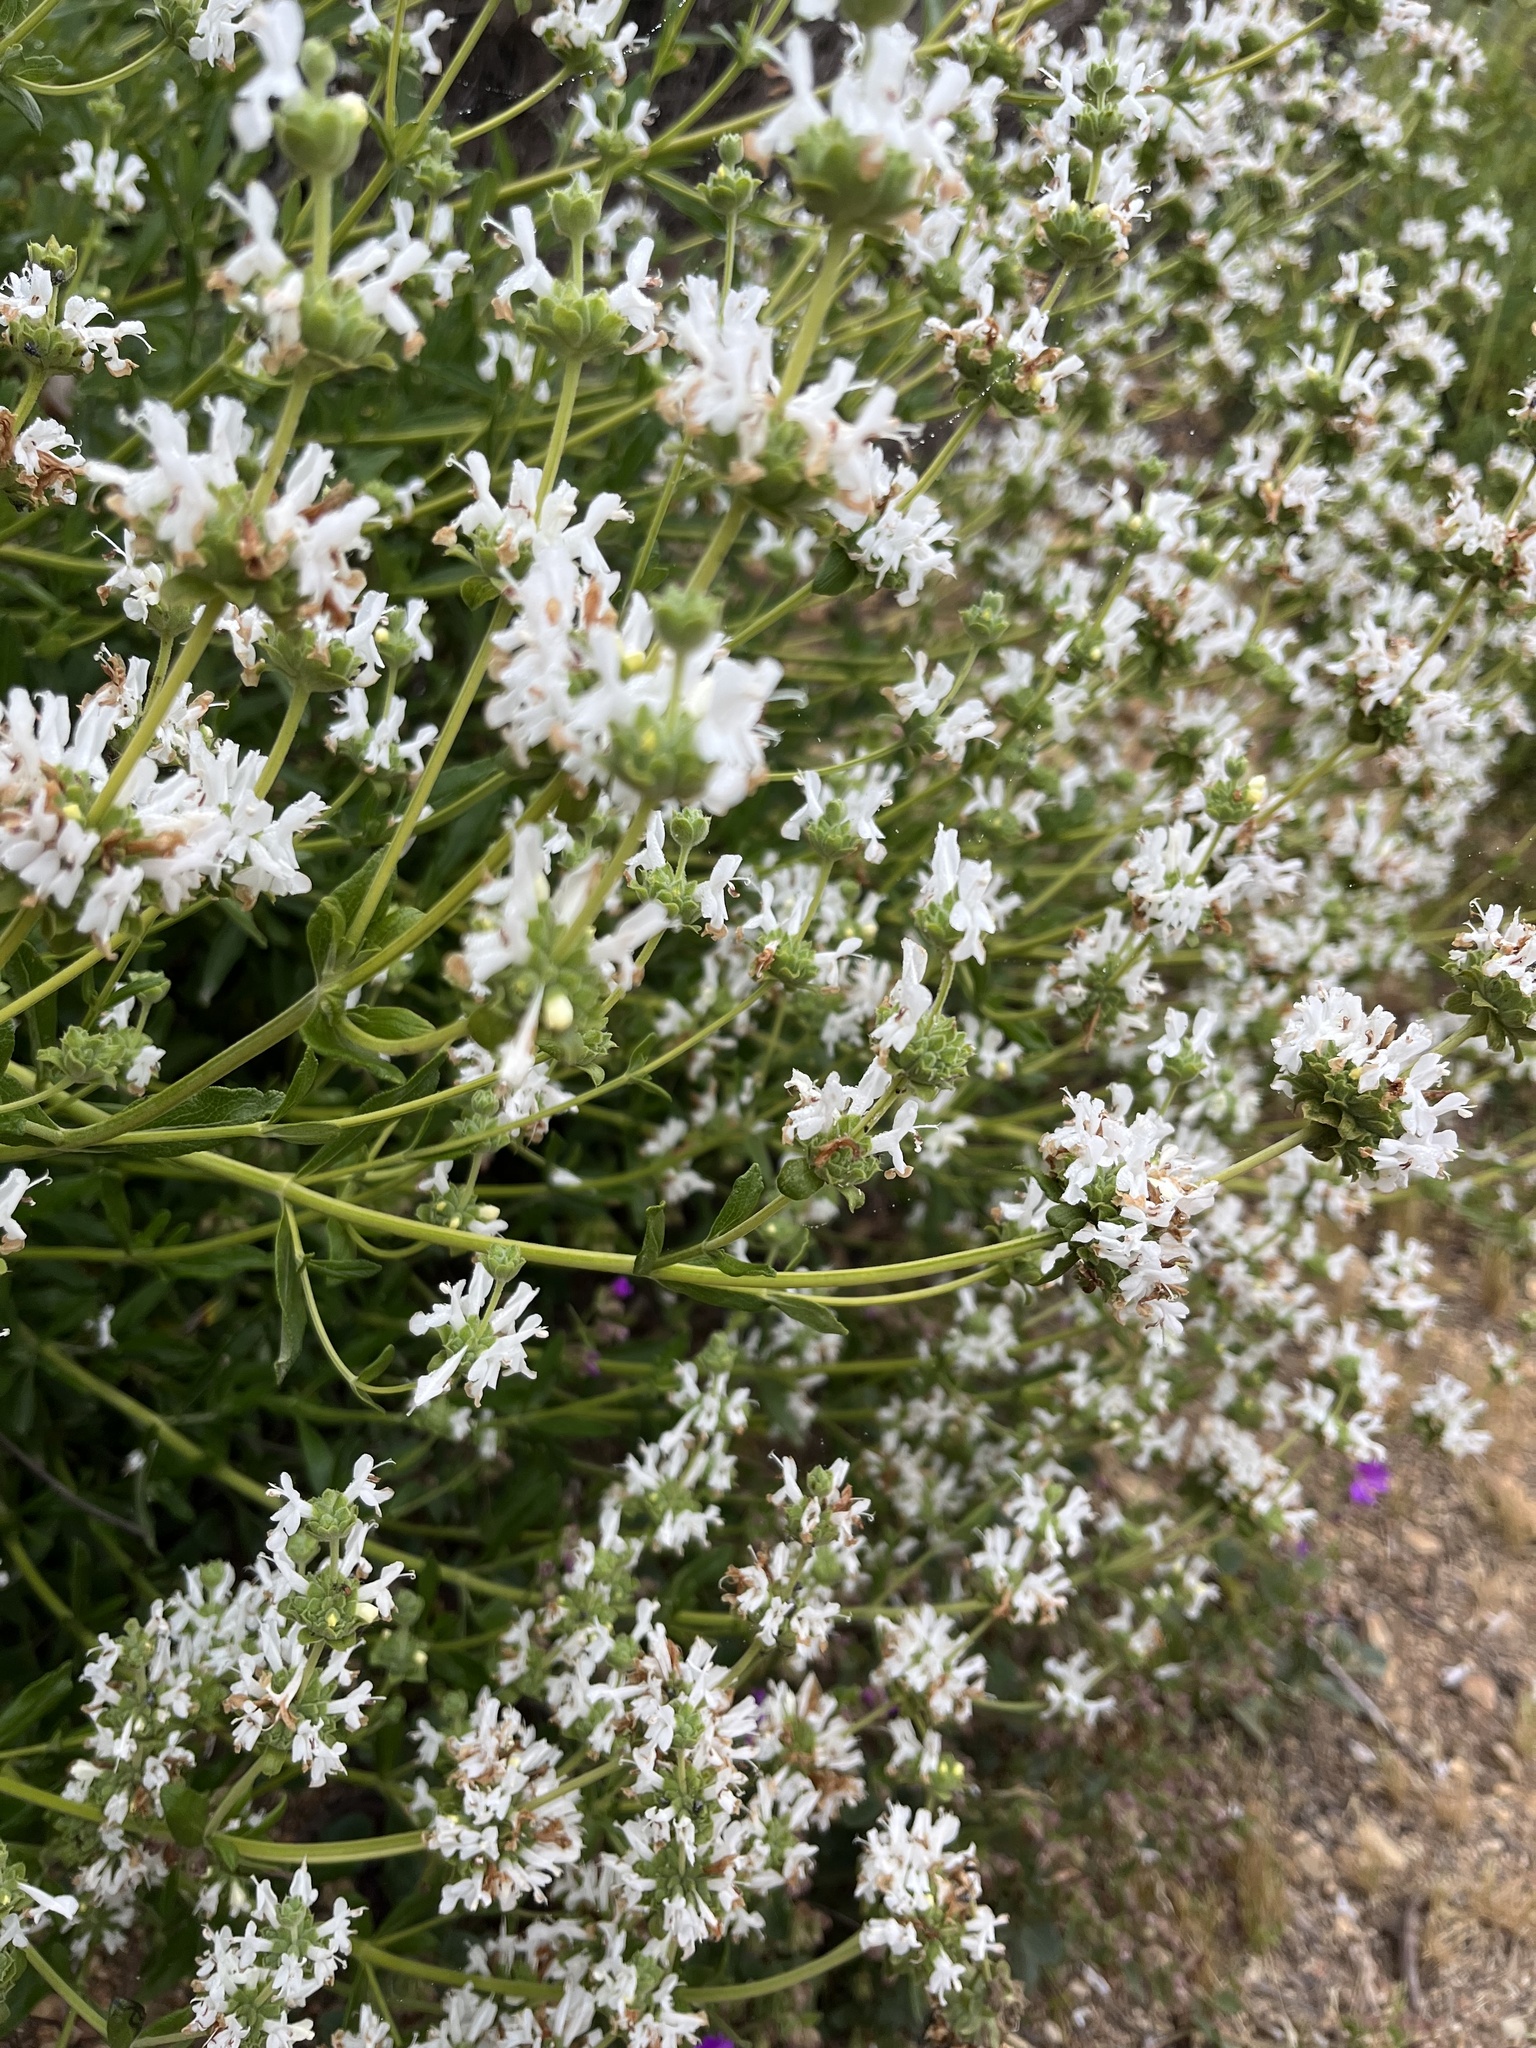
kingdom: Plantae
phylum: Tracheophyta
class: Magnoliopsida
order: Lamiales
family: Lamiaceae
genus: Salvia
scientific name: Salvia mellifera
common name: Black sage
